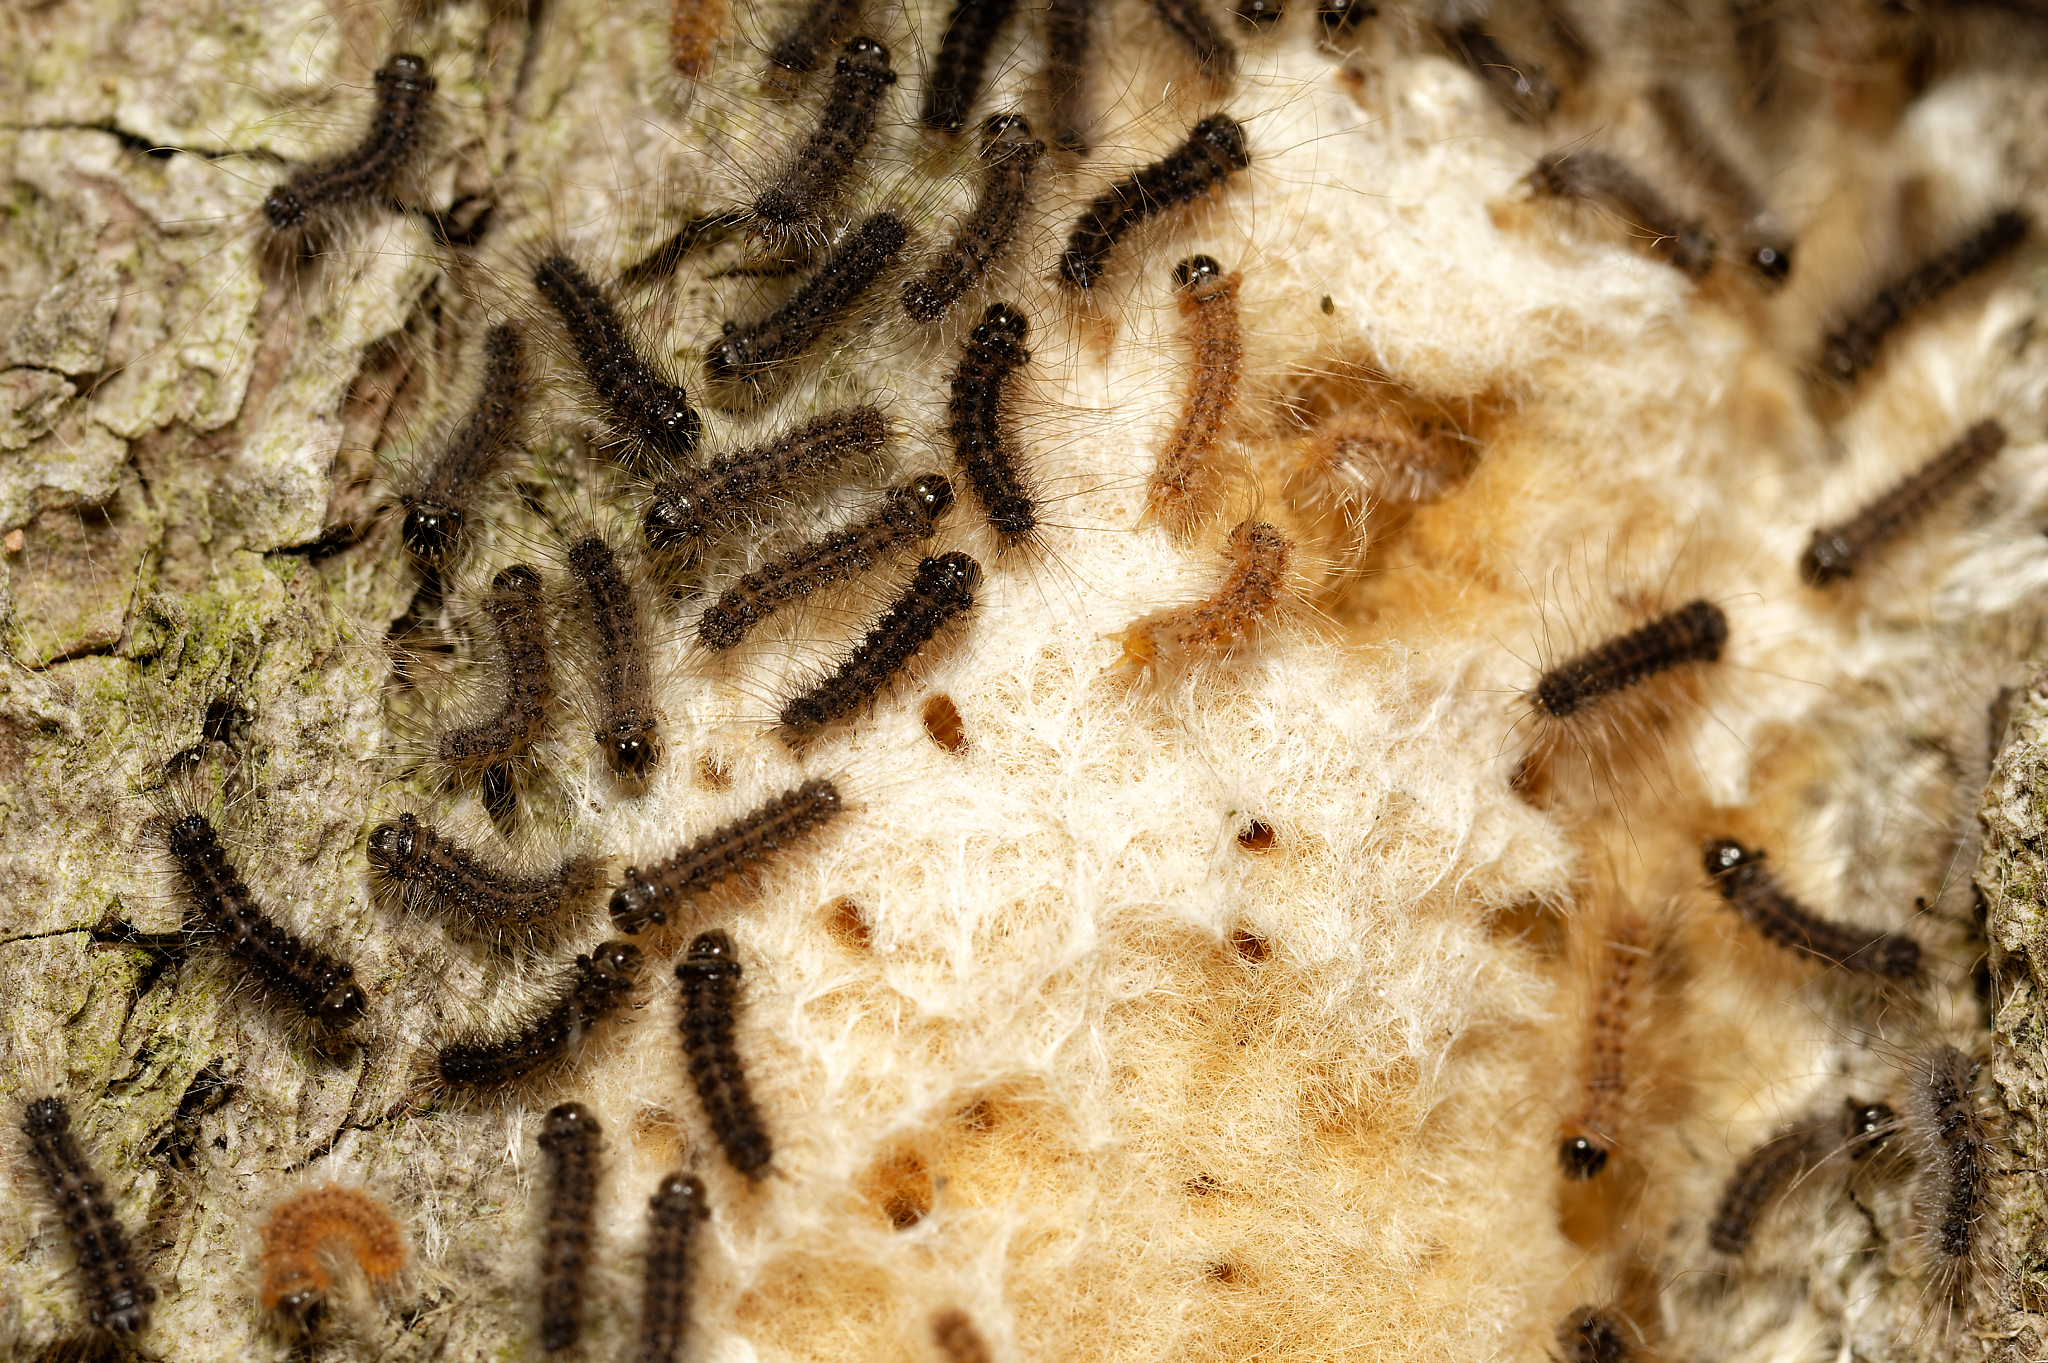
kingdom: Animalia
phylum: Arthropoda
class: Insecta
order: Lepidoptera
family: Erebidae
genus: Lymantria
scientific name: Lymantria dispar
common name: Gypsy moth
